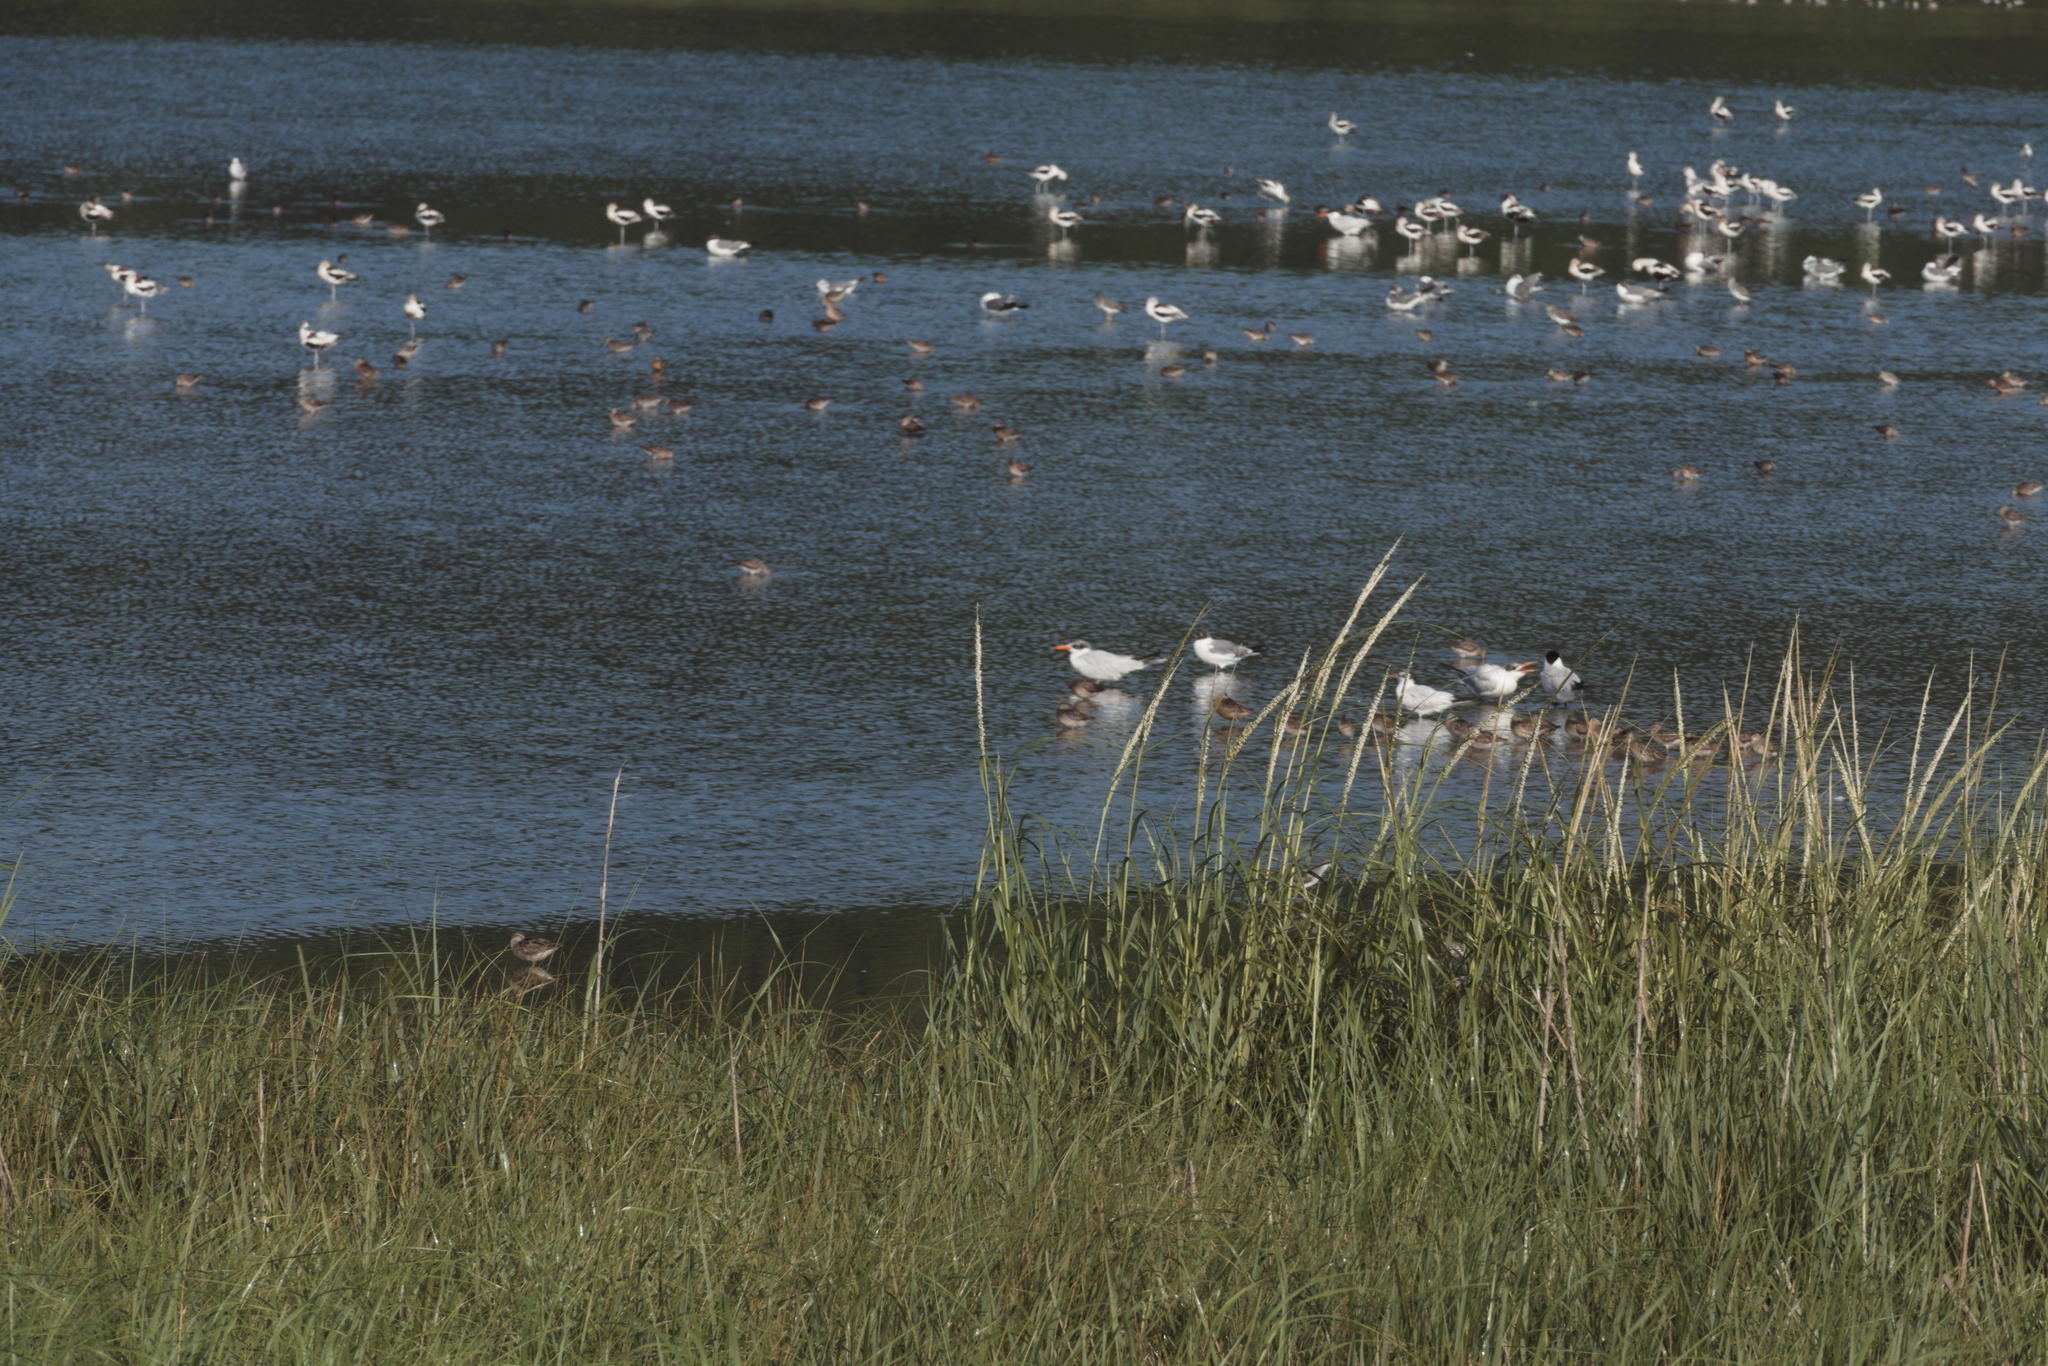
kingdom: Animalia
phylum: Chordata
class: Aves
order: Charadriiformes
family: Laridae
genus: Thalasseus
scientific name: Thalasseus maximus
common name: Royal tern
